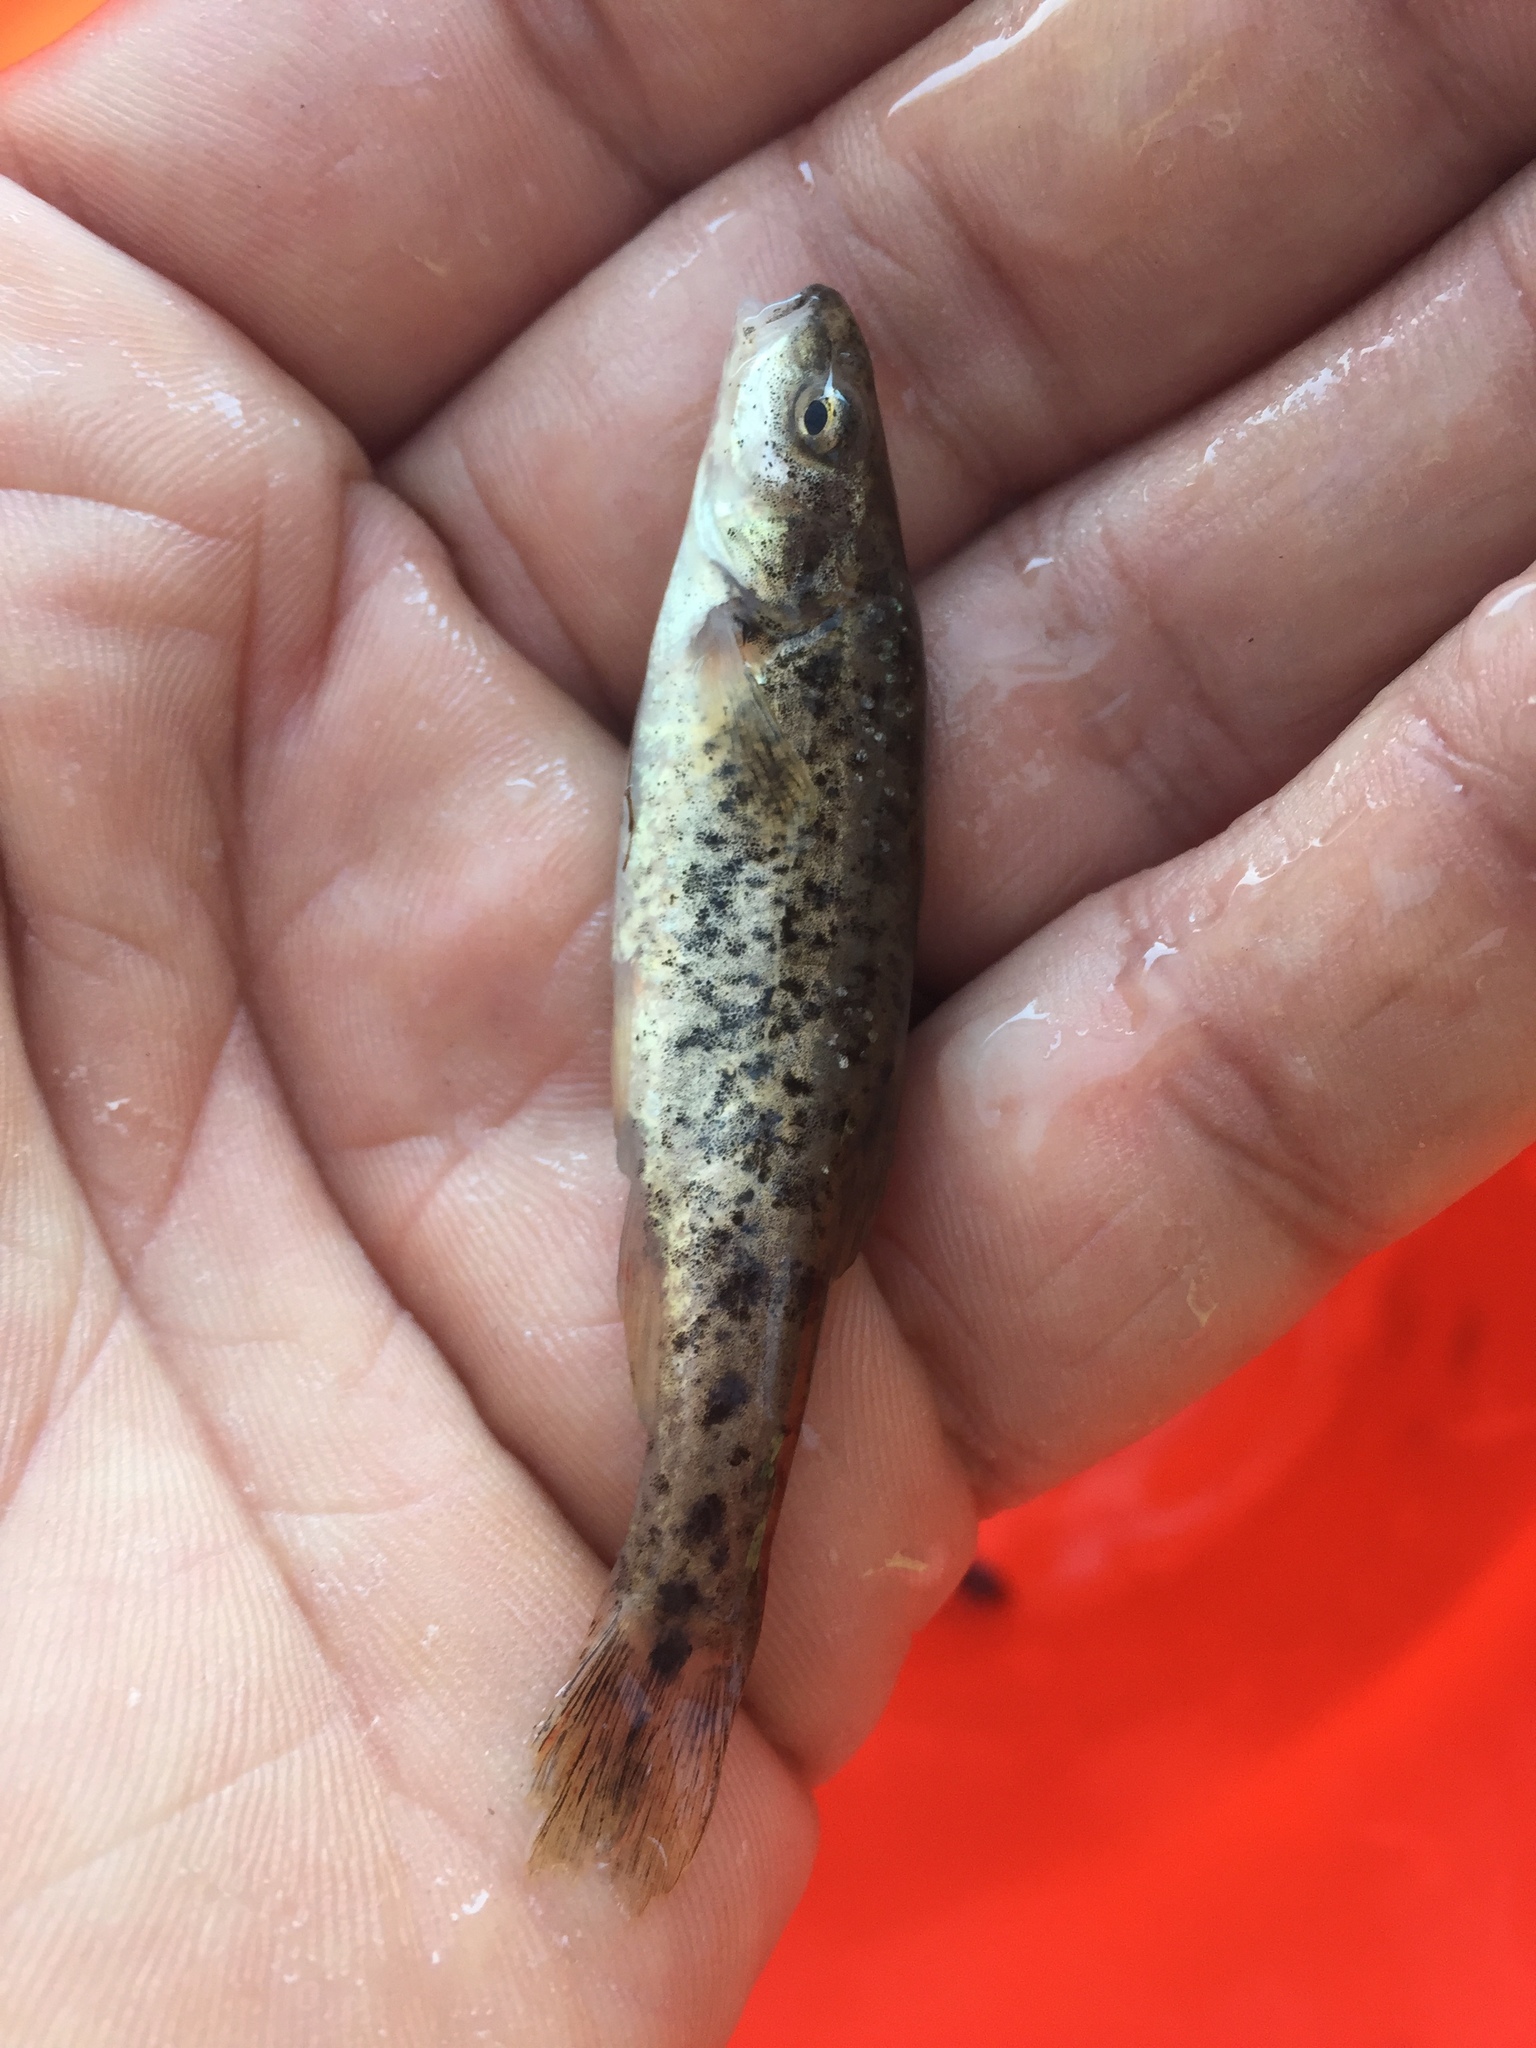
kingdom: Animalia
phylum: Chordata
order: Cypriniformes
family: Cyprinidae
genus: Rhinichthys
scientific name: Rhinichthys osculus
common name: Speckled dace
